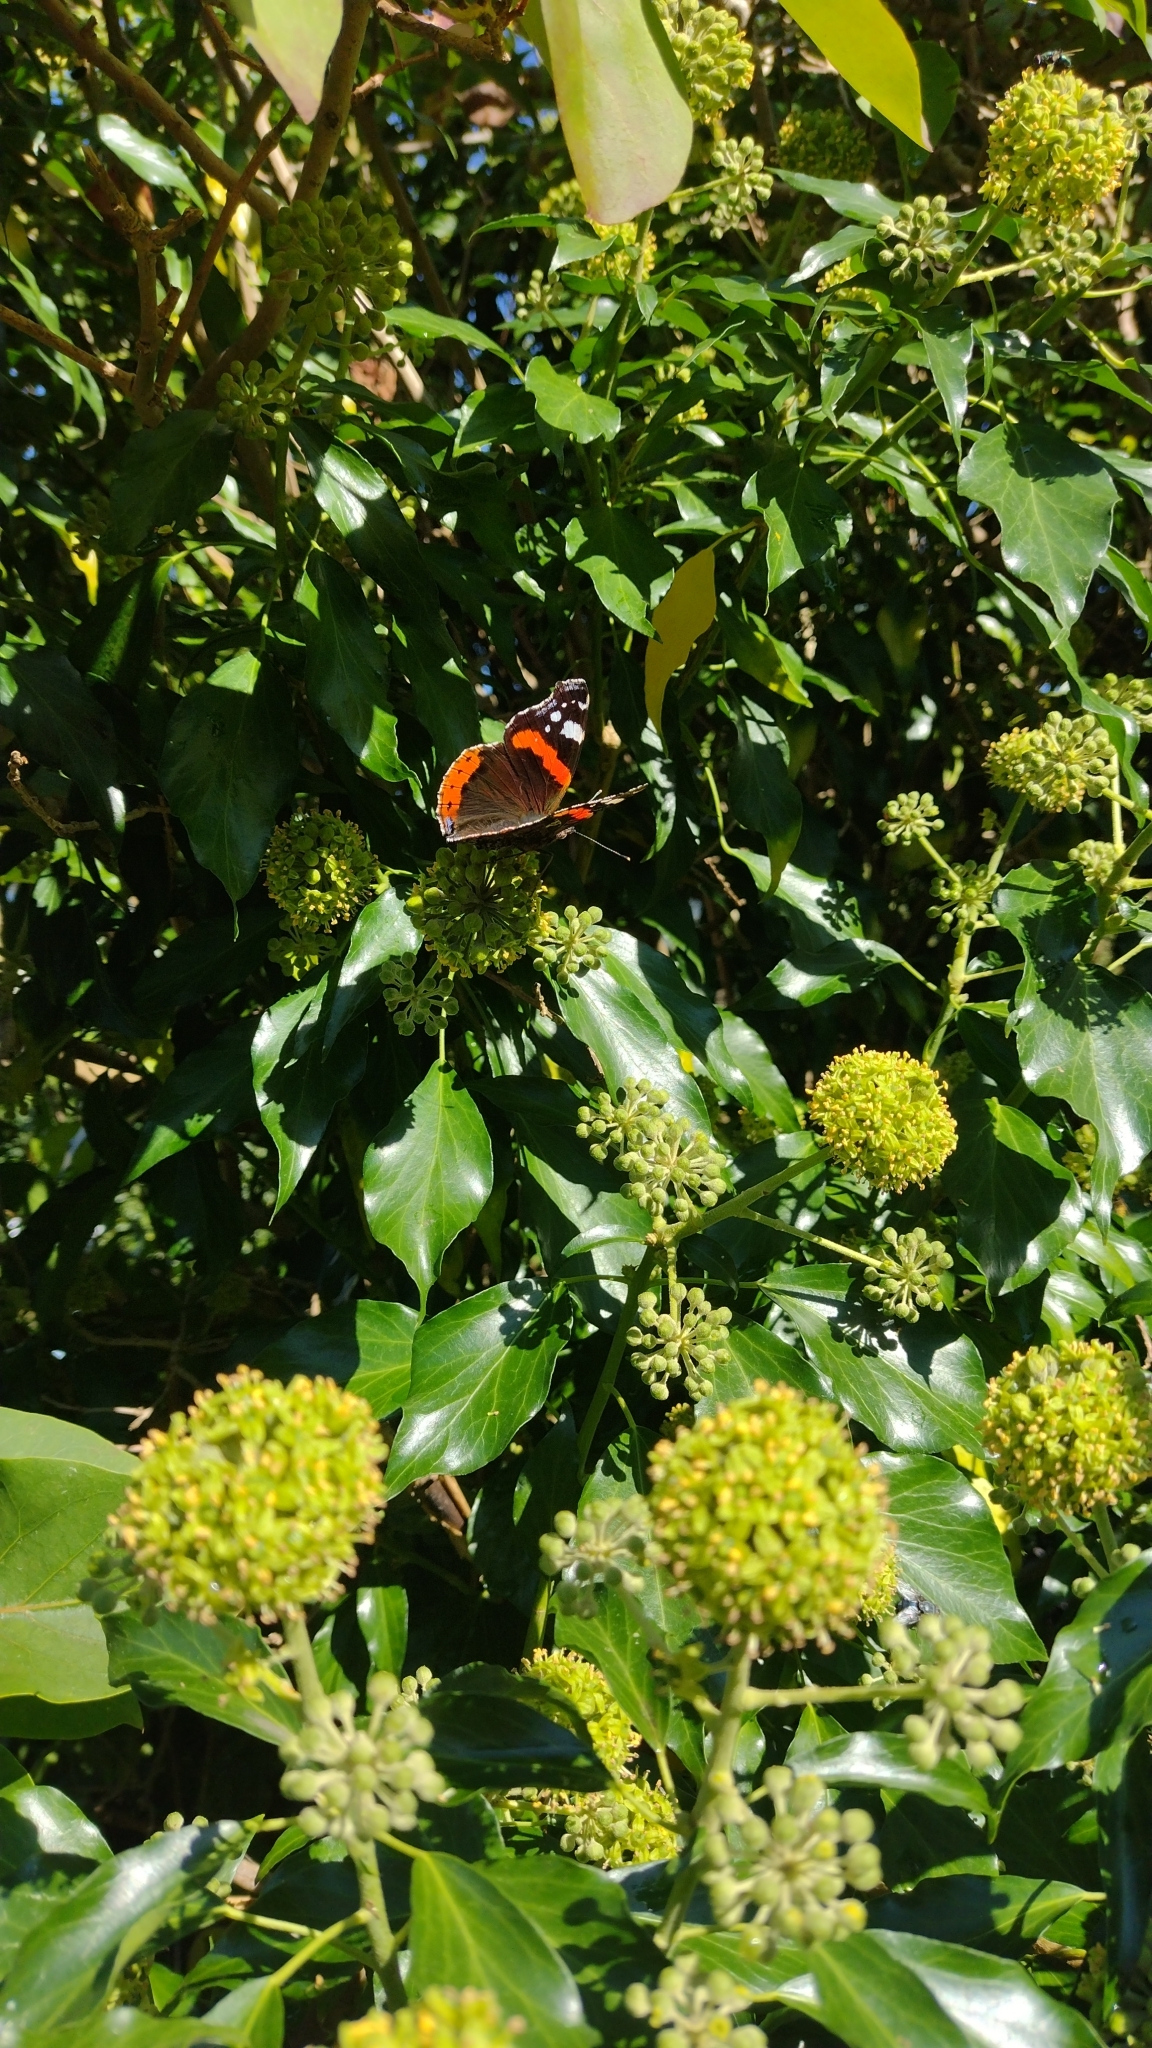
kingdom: Animalia
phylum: Arthropoda
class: Insecta
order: Lepidoptera
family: Nymphalidae
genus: Vanessa
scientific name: Vanessa atalanta
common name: Red admiral
